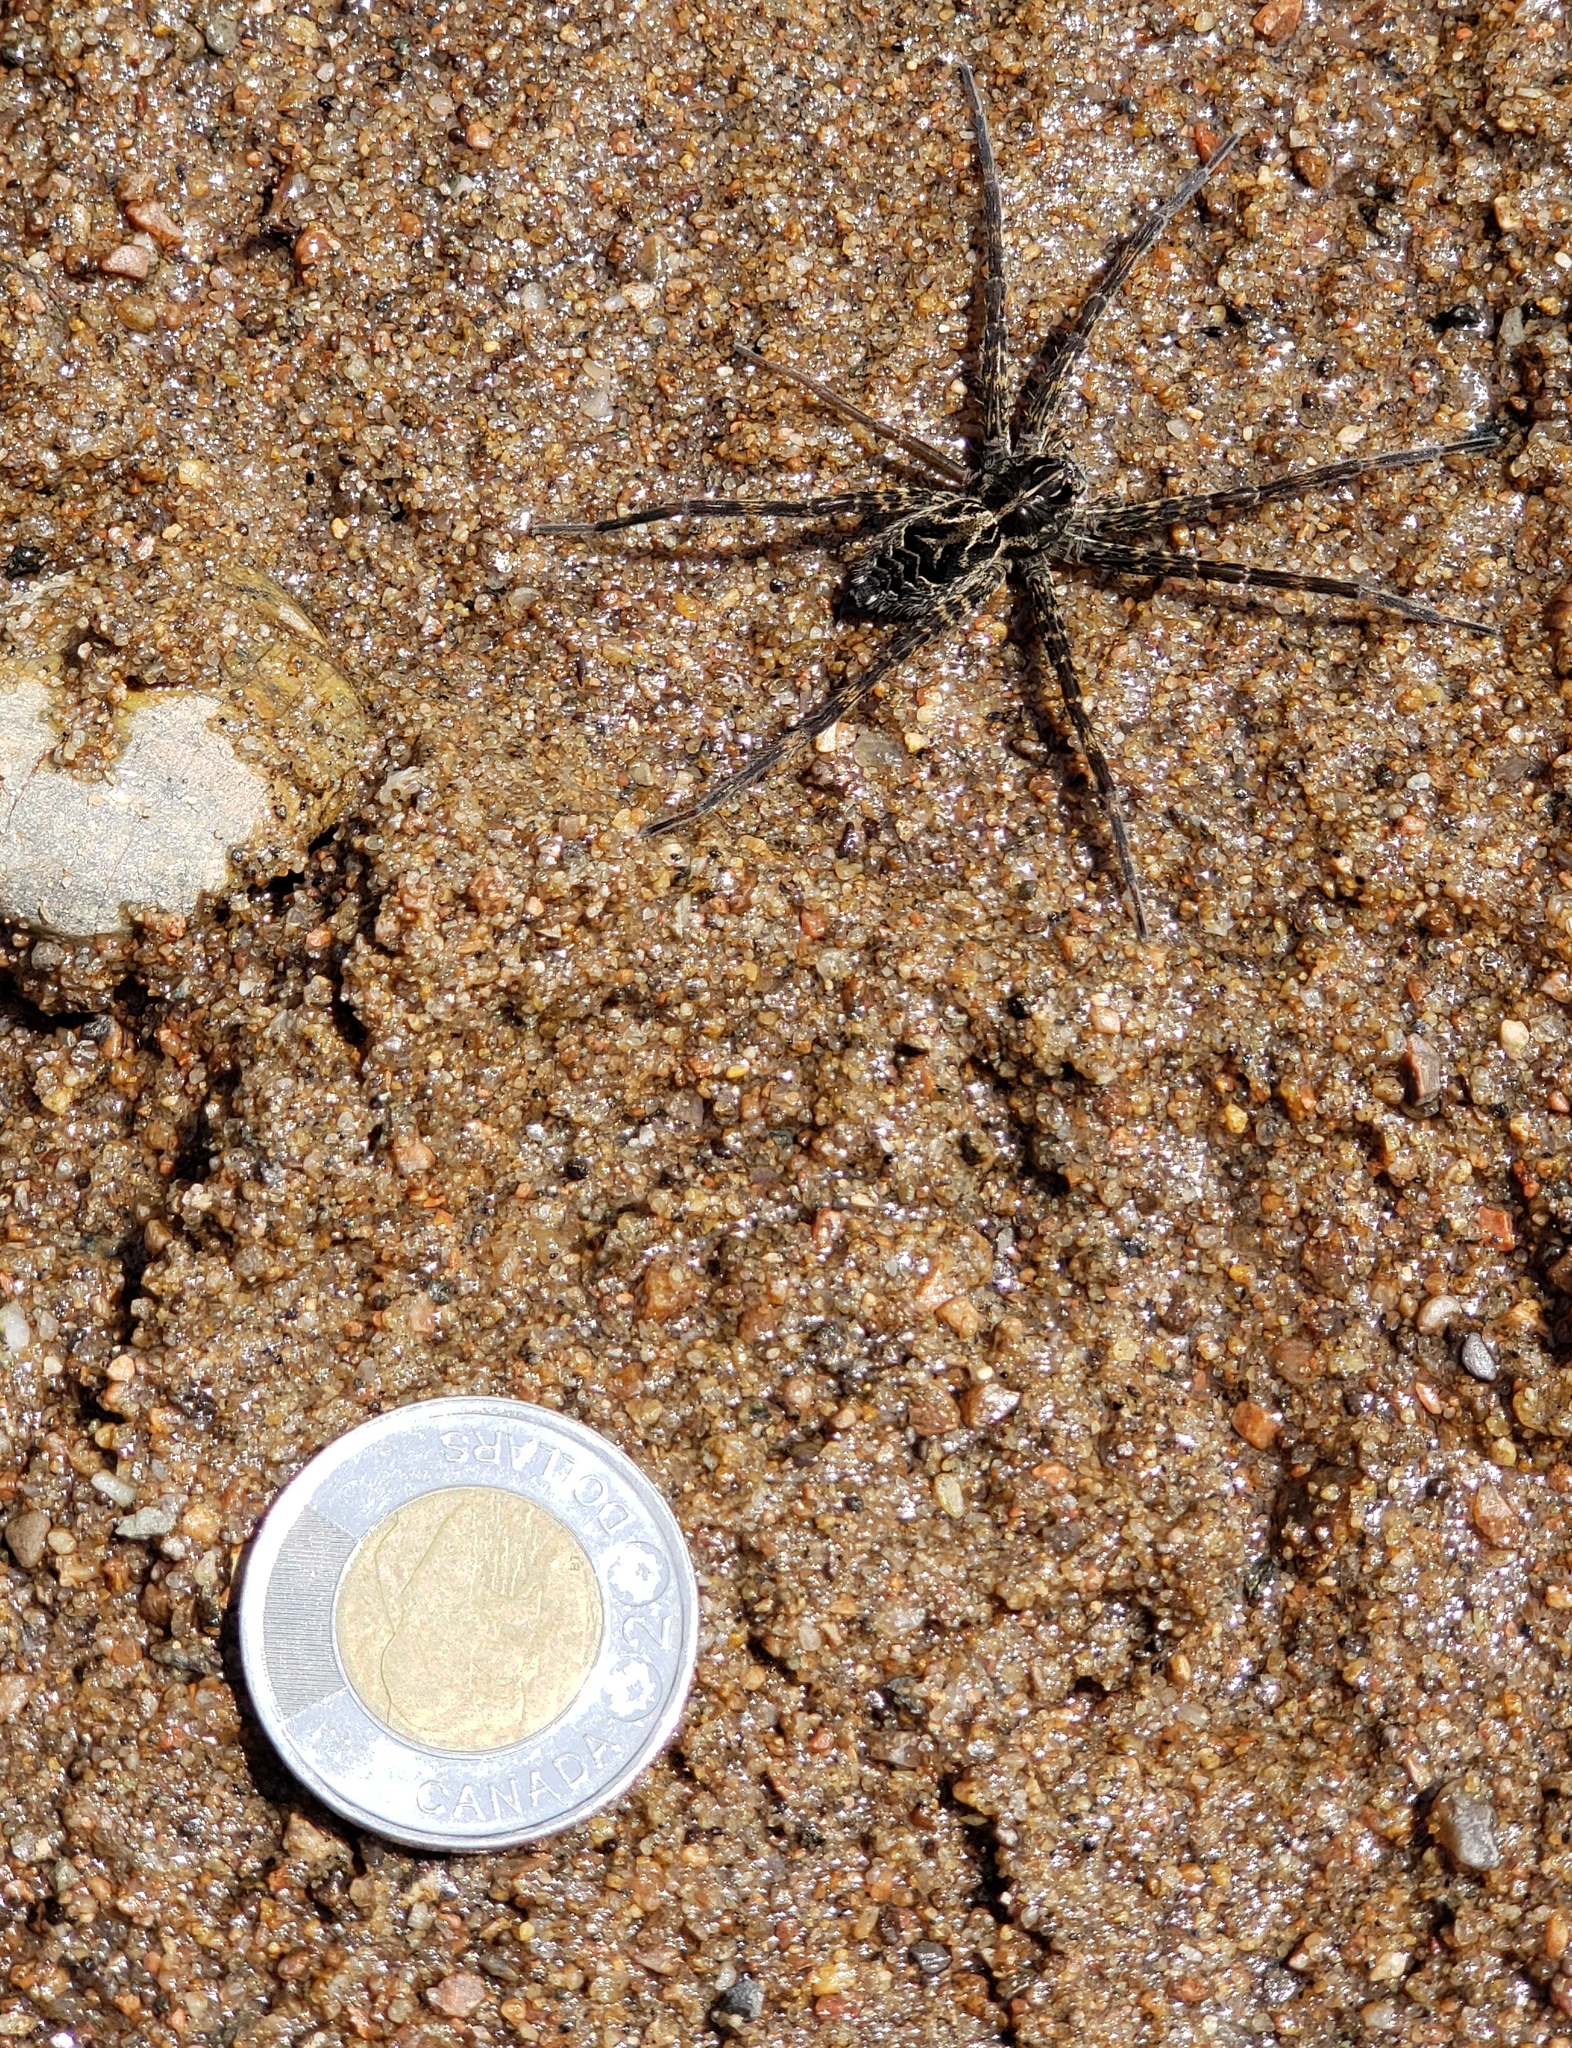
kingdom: Animalia
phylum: Arthropoda
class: Arachnida
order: Araneae
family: Pisauridae
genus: Dolomedes
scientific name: Dolomedes scriptus
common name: Striped fishing spider
